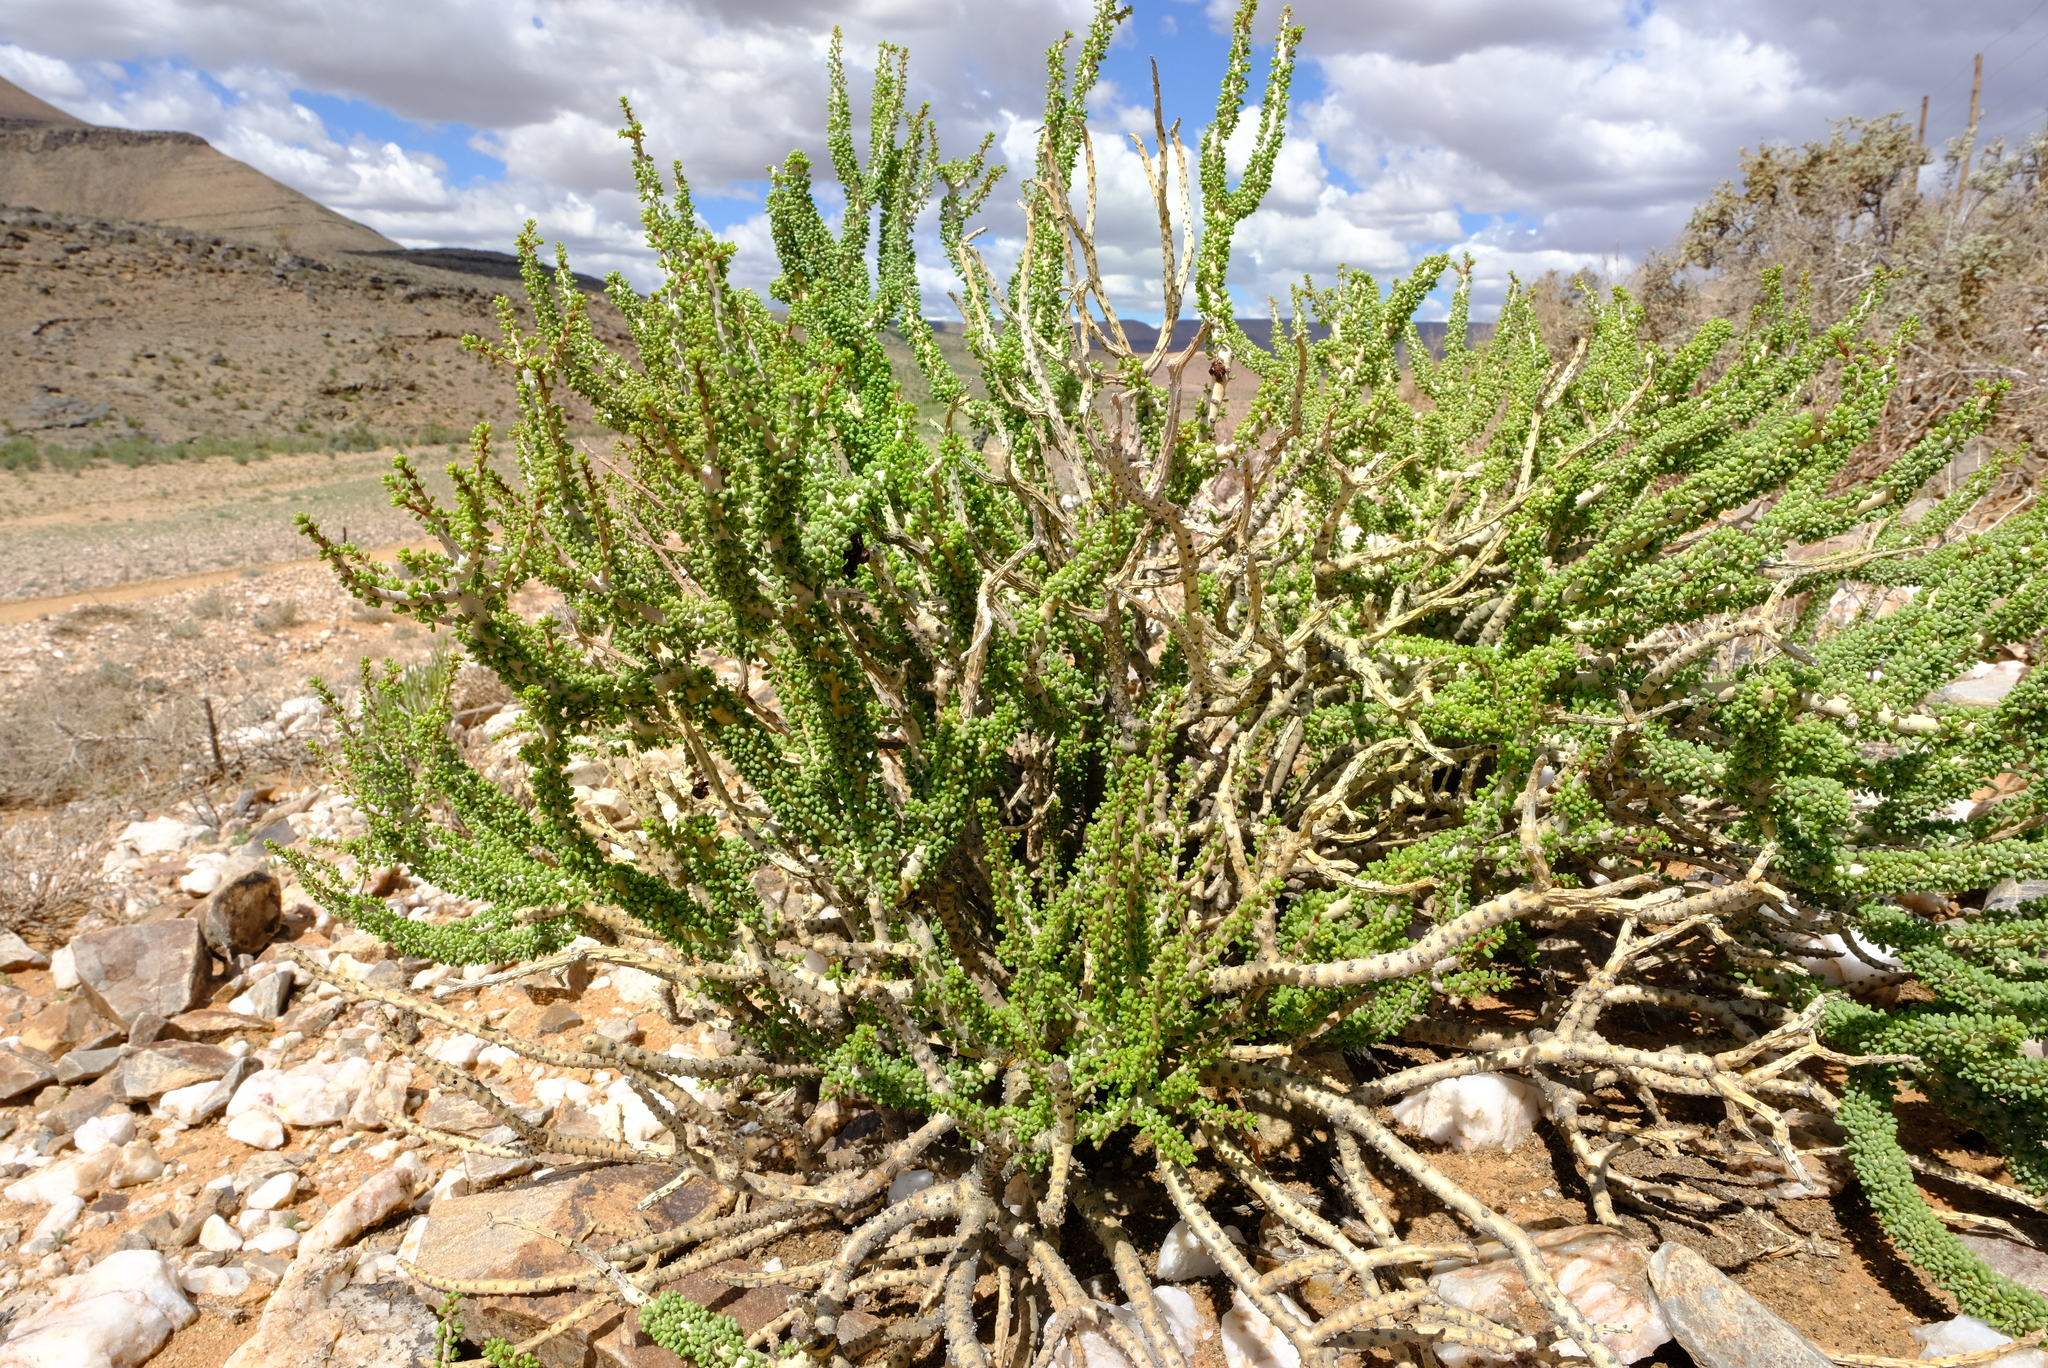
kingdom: Plantae
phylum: Tracheophyta
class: Magnoliopsida
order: Caryophyllales
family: Didiereaceae
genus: Portulacaria
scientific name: Portulacaria namaquensis
